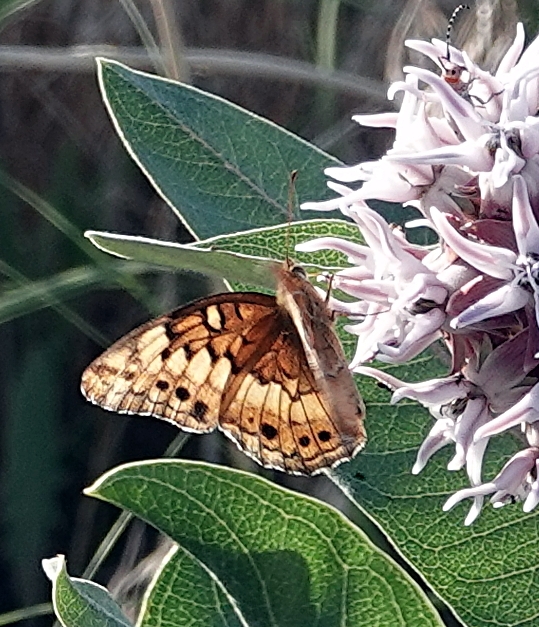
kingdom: Animalia
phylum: Arthropoda
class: Insecta
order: Lepidoptera
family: Nymphalidae
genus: Euptoieta
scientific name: Euptoieta claudia
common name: Variegated fritillary
